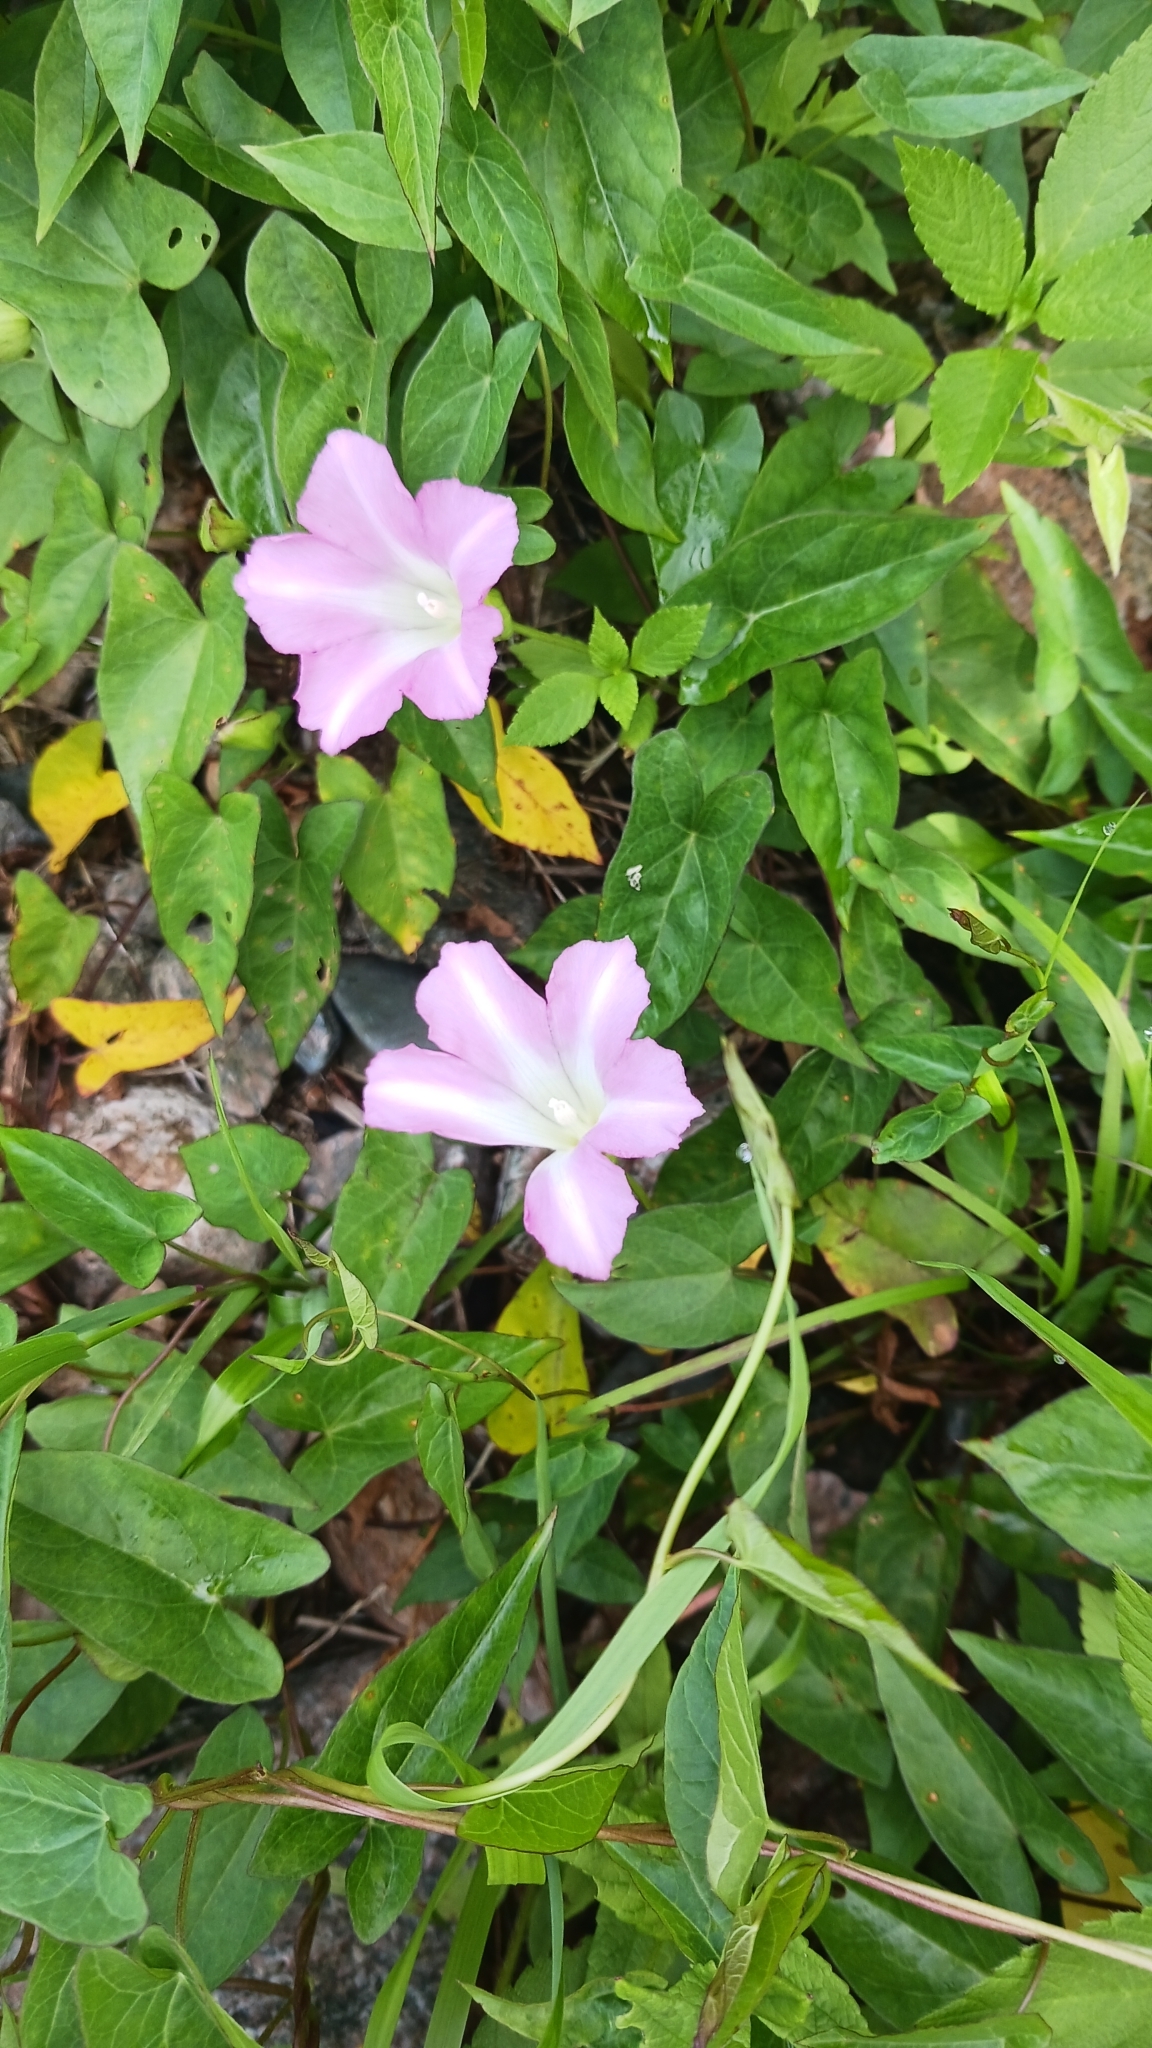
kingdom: Plantae
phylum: Tracheophyta
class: Magnoliopsida
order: Solanales
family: Convolvulaceae
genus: Calystegia
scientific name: Calystegia sepium
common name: Hedge bindweed
